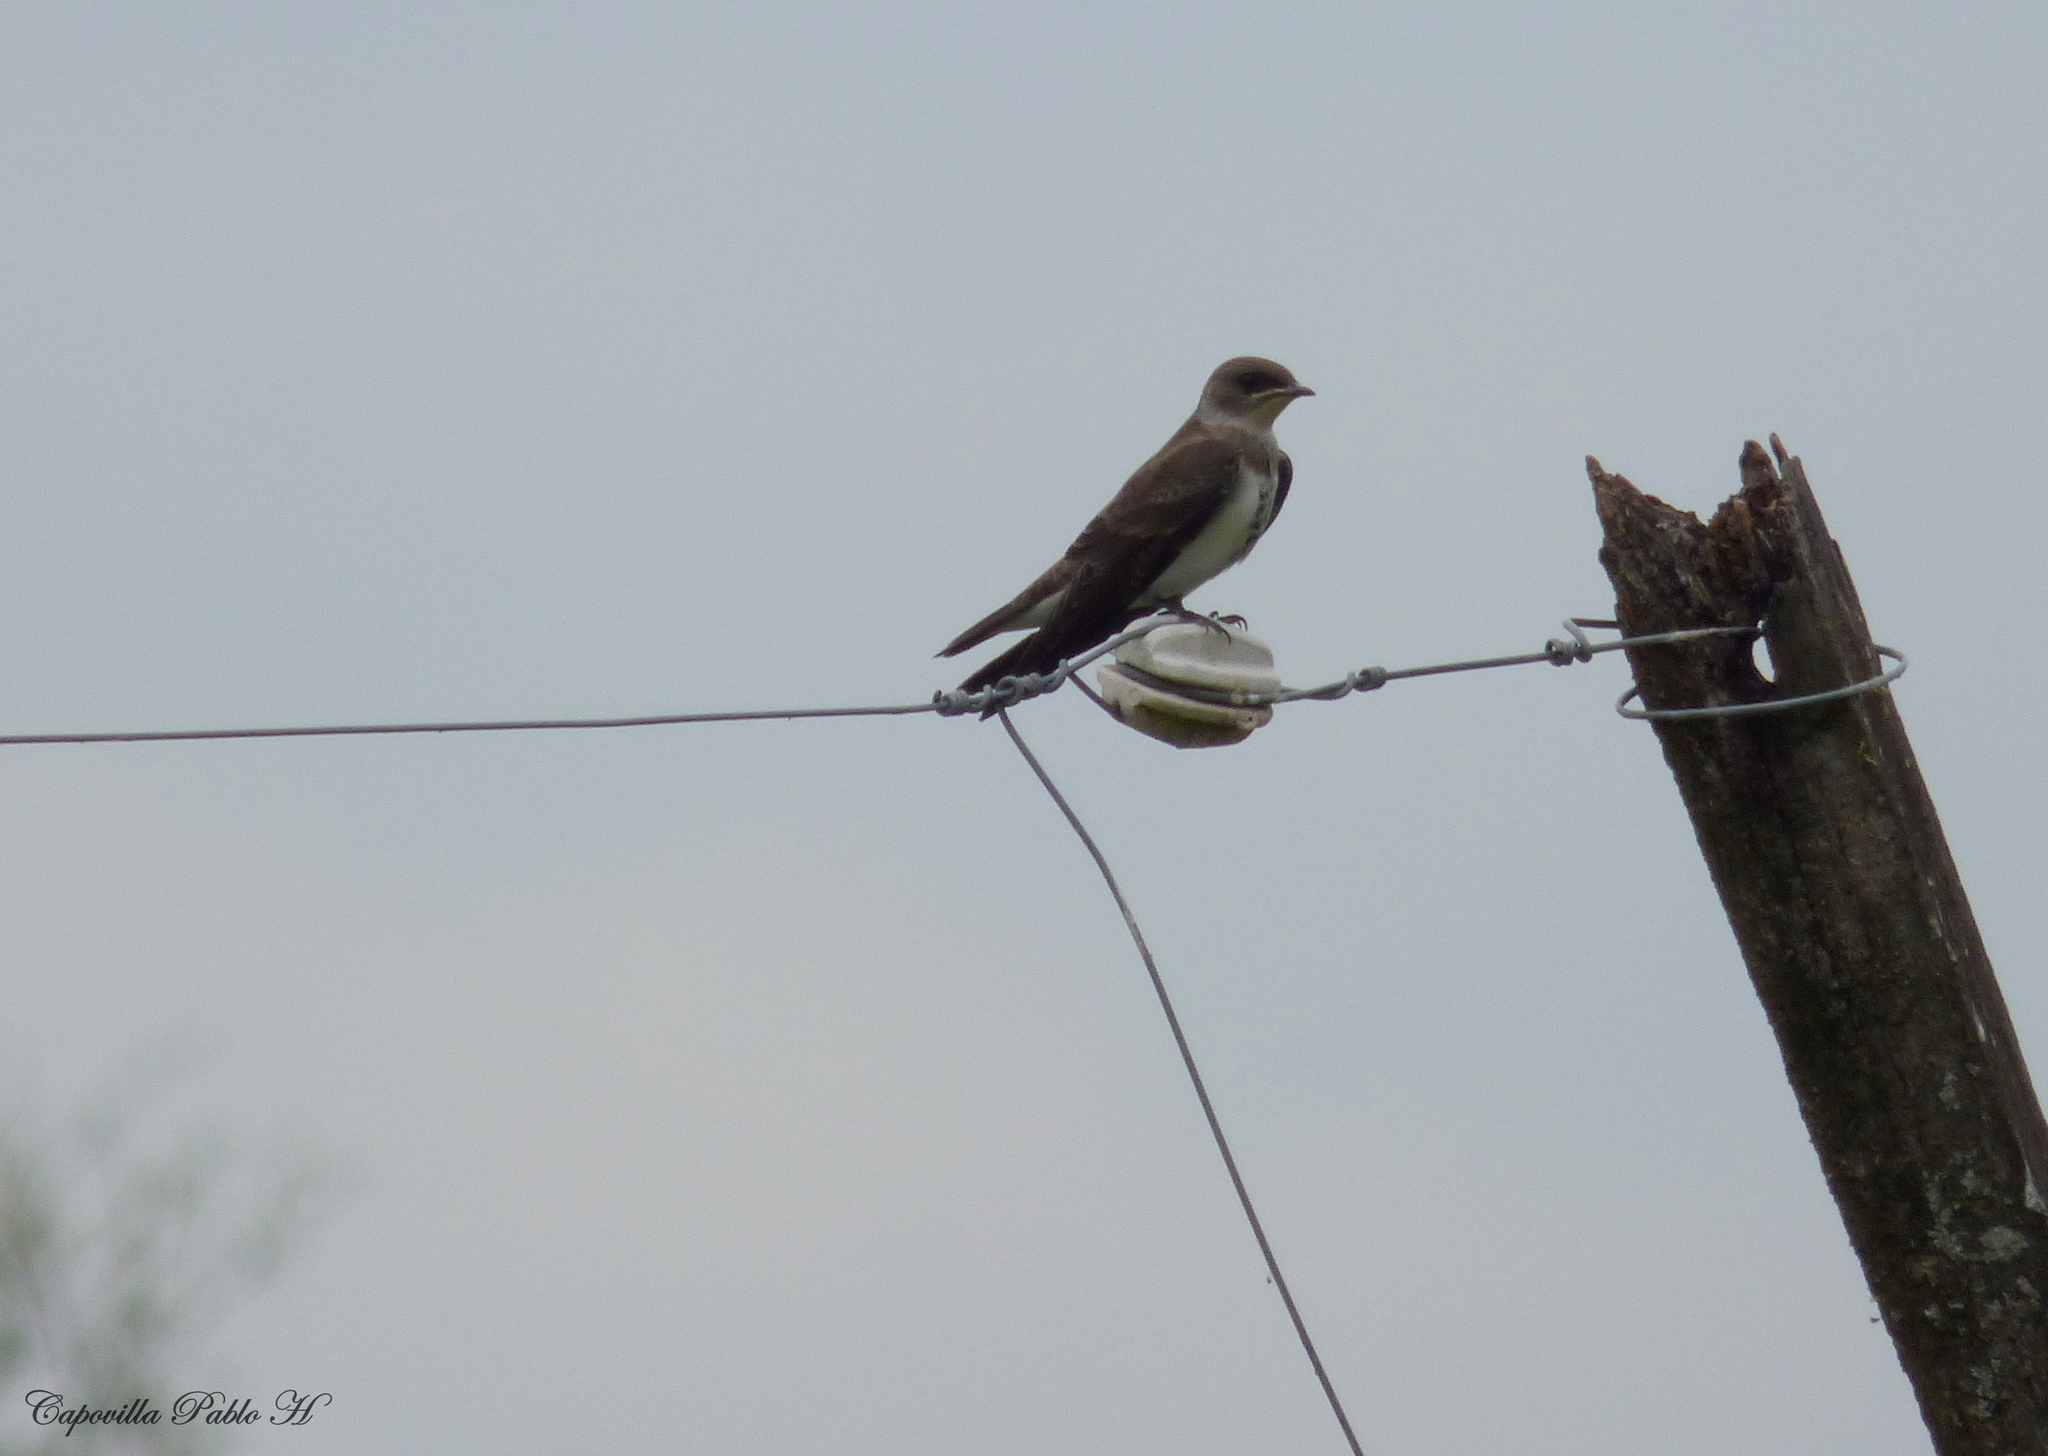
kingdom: Animalia
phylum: Chordata
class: Aves
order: Passeriformes
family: Hirundinidae
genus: Progne
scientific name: Progne tapera
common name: Brown-chested martin
